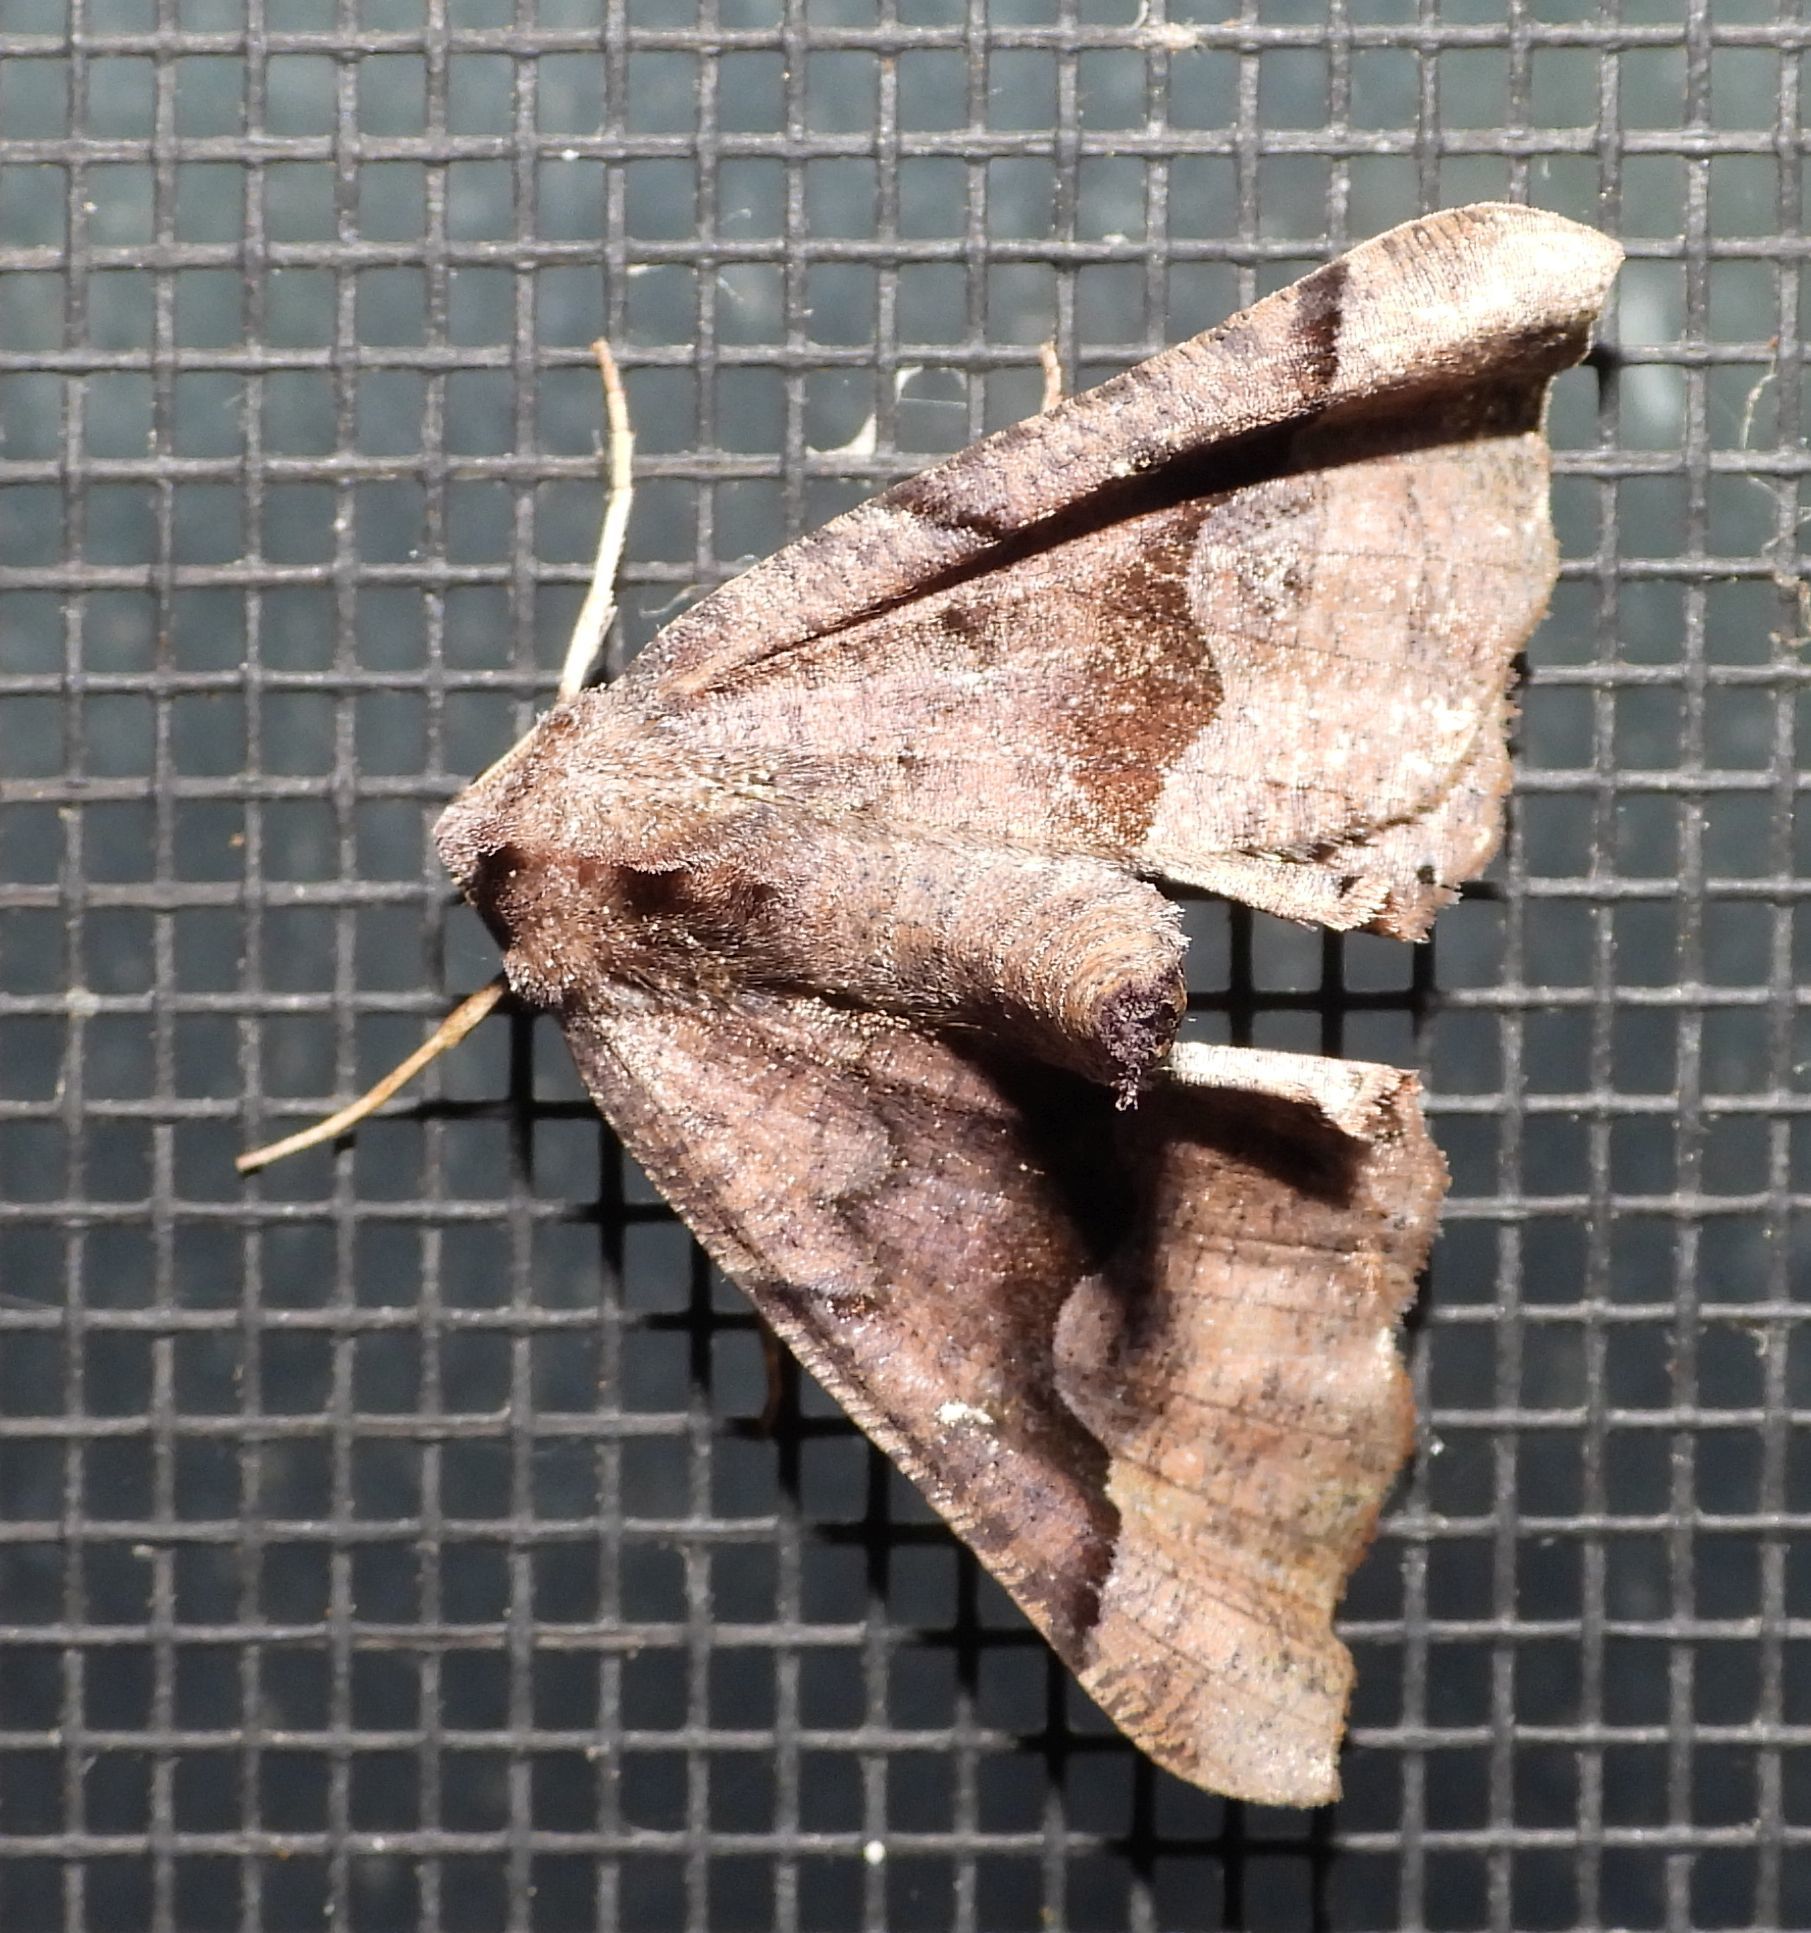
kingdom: Animalia
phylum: Arthropoda
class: Insecta
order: Lepidoptera
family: Geometridae
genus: Pero
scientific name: Pero honestaria
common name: Honest pero
